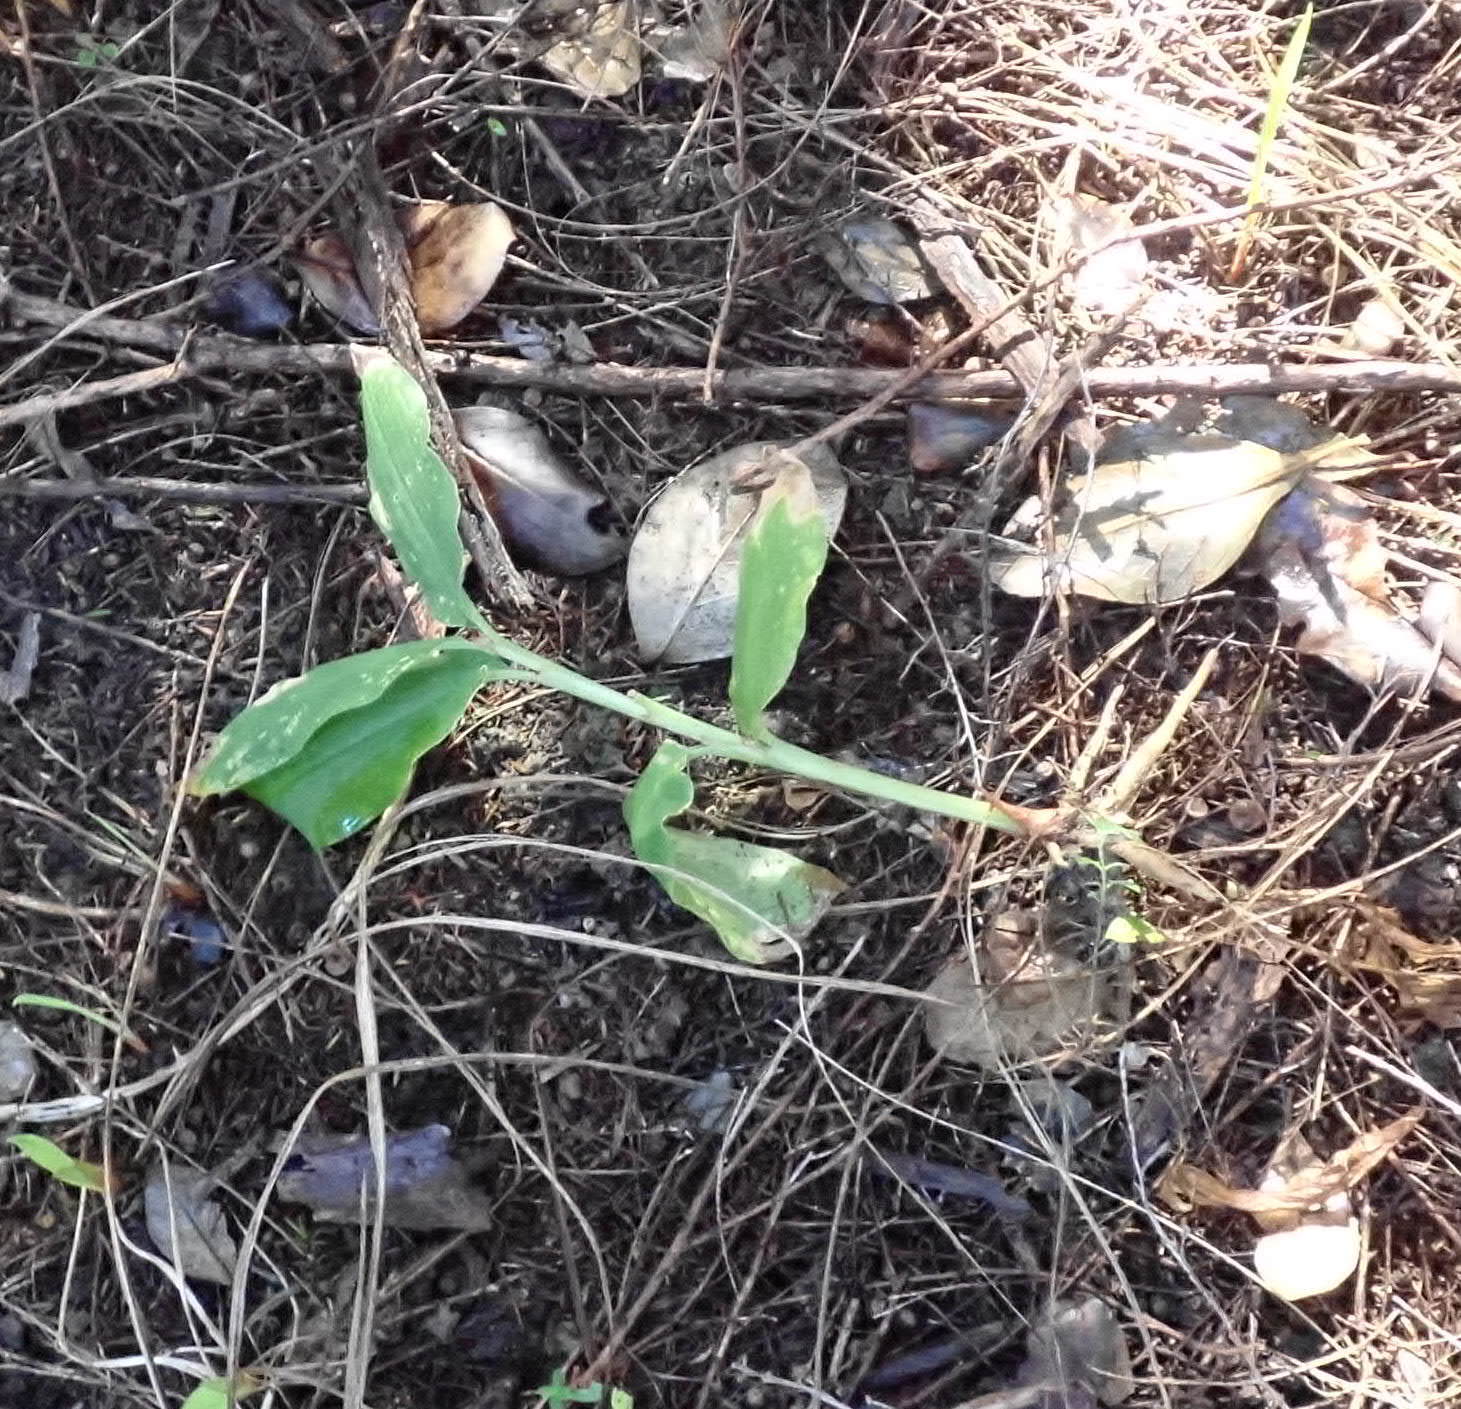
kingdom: Plantae
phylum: Tracheophyta
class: Liliopsida
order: Zingiberales
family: Zingiberaceae
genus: Hedychium
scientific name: Hedychium gardnerianum
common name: Himalayan ginger
